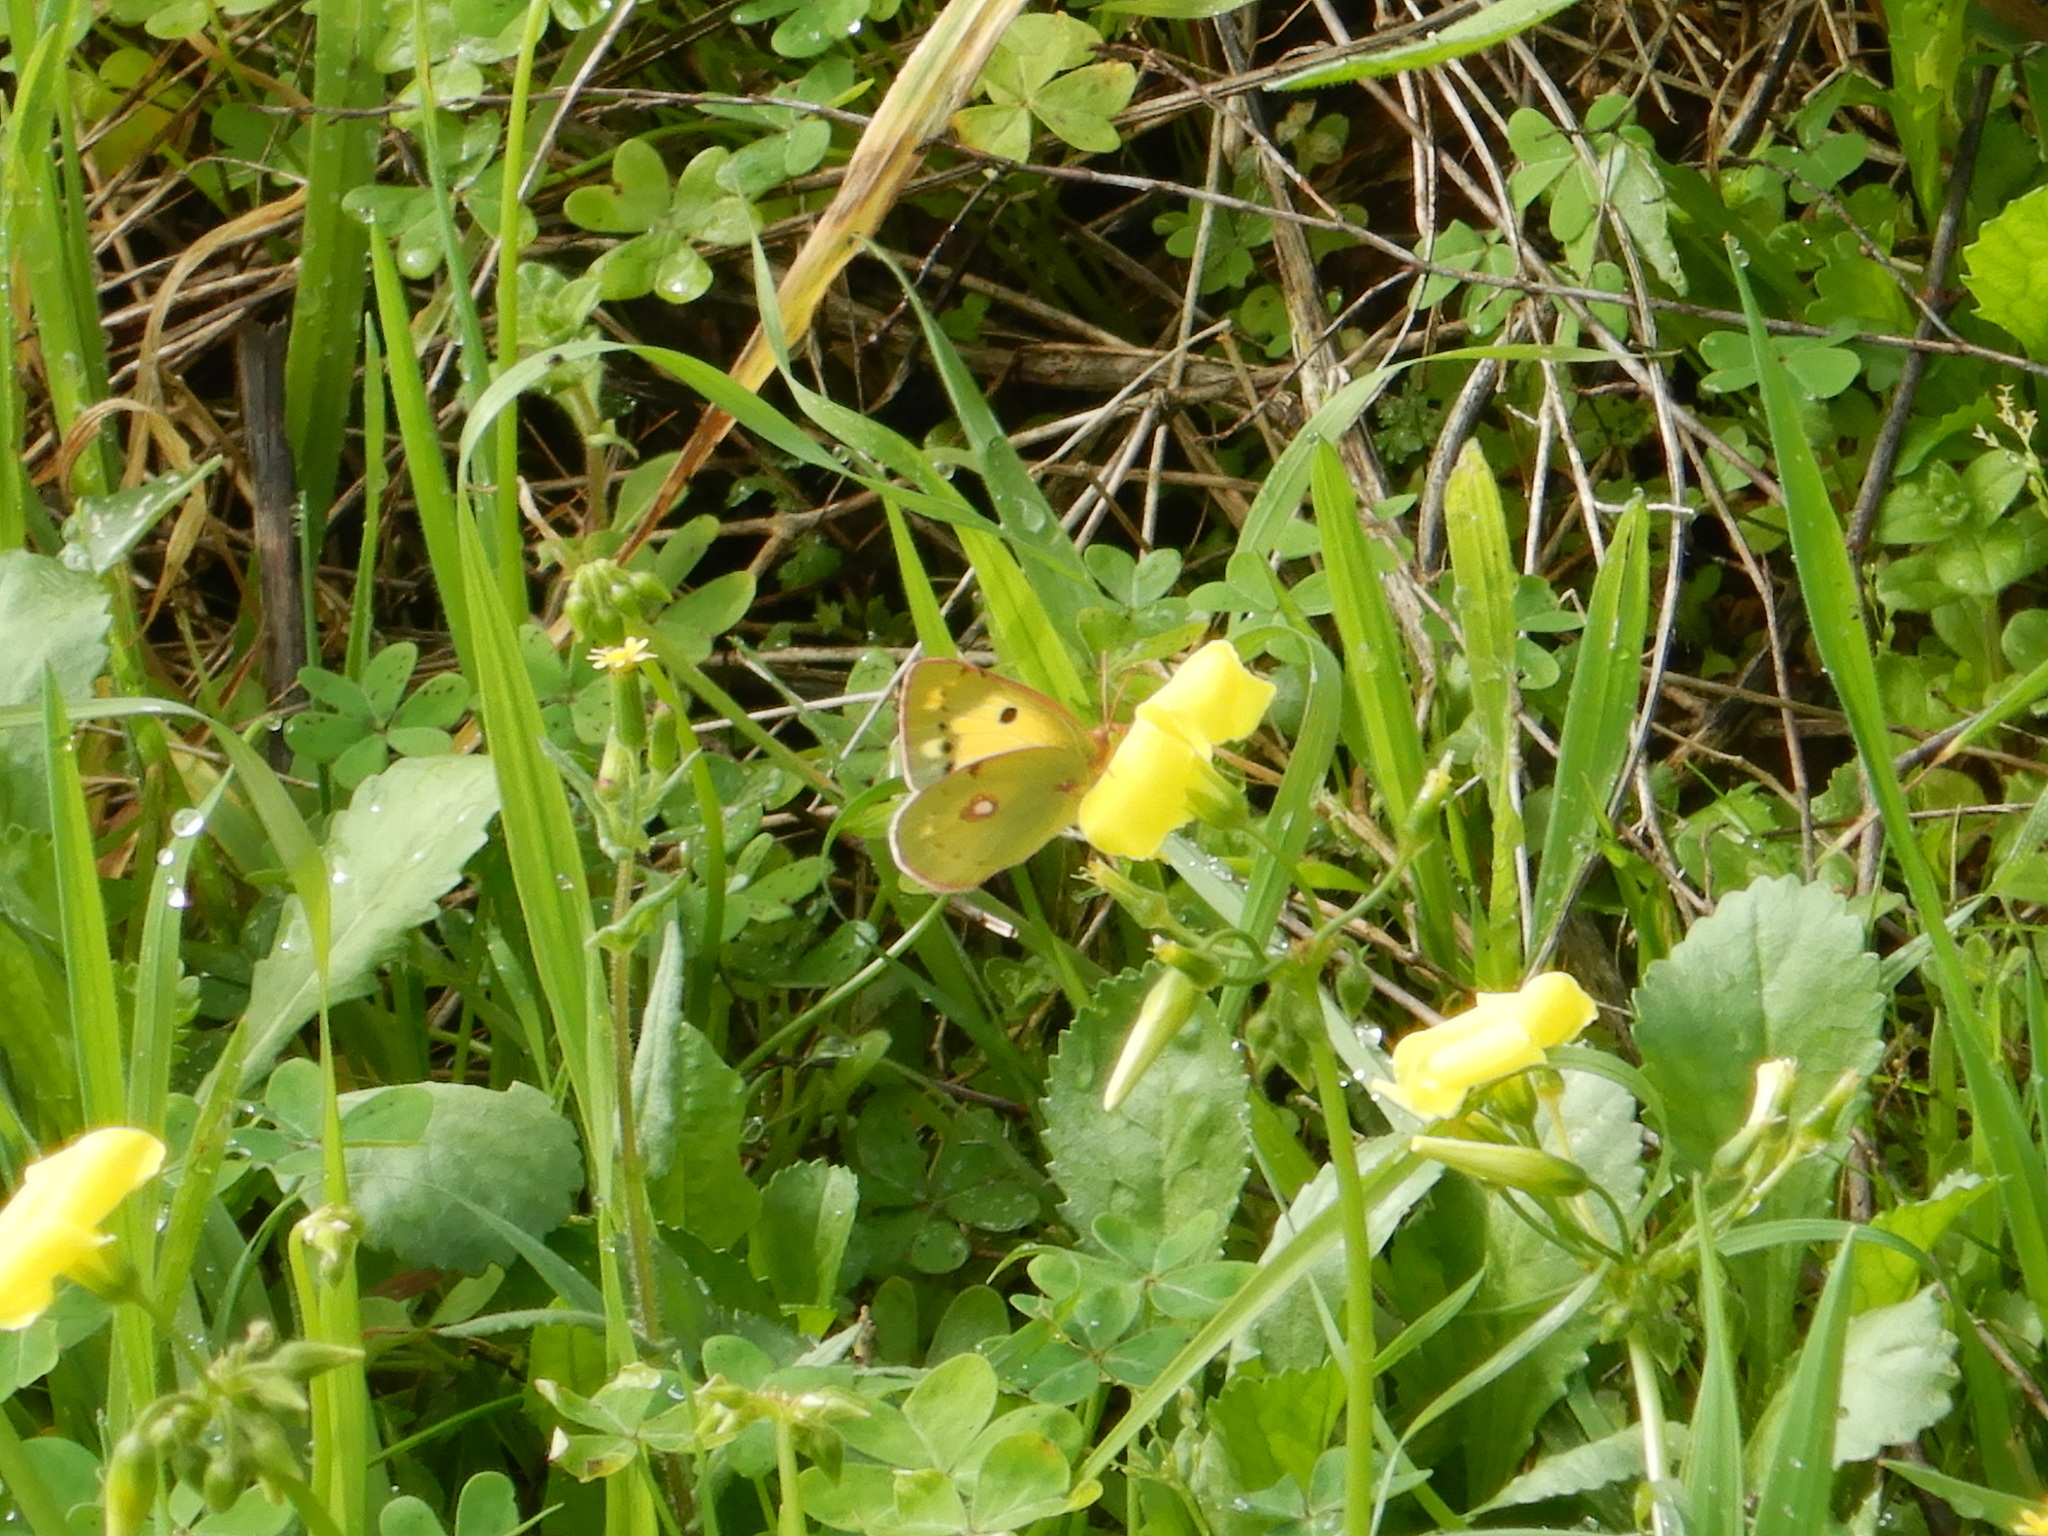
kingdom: Animalia
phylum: Arthropoda
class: Insecta
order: Lepidoptera
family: Pieridae
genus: Colias
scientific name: Colias croceus
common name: Clouded yellow
